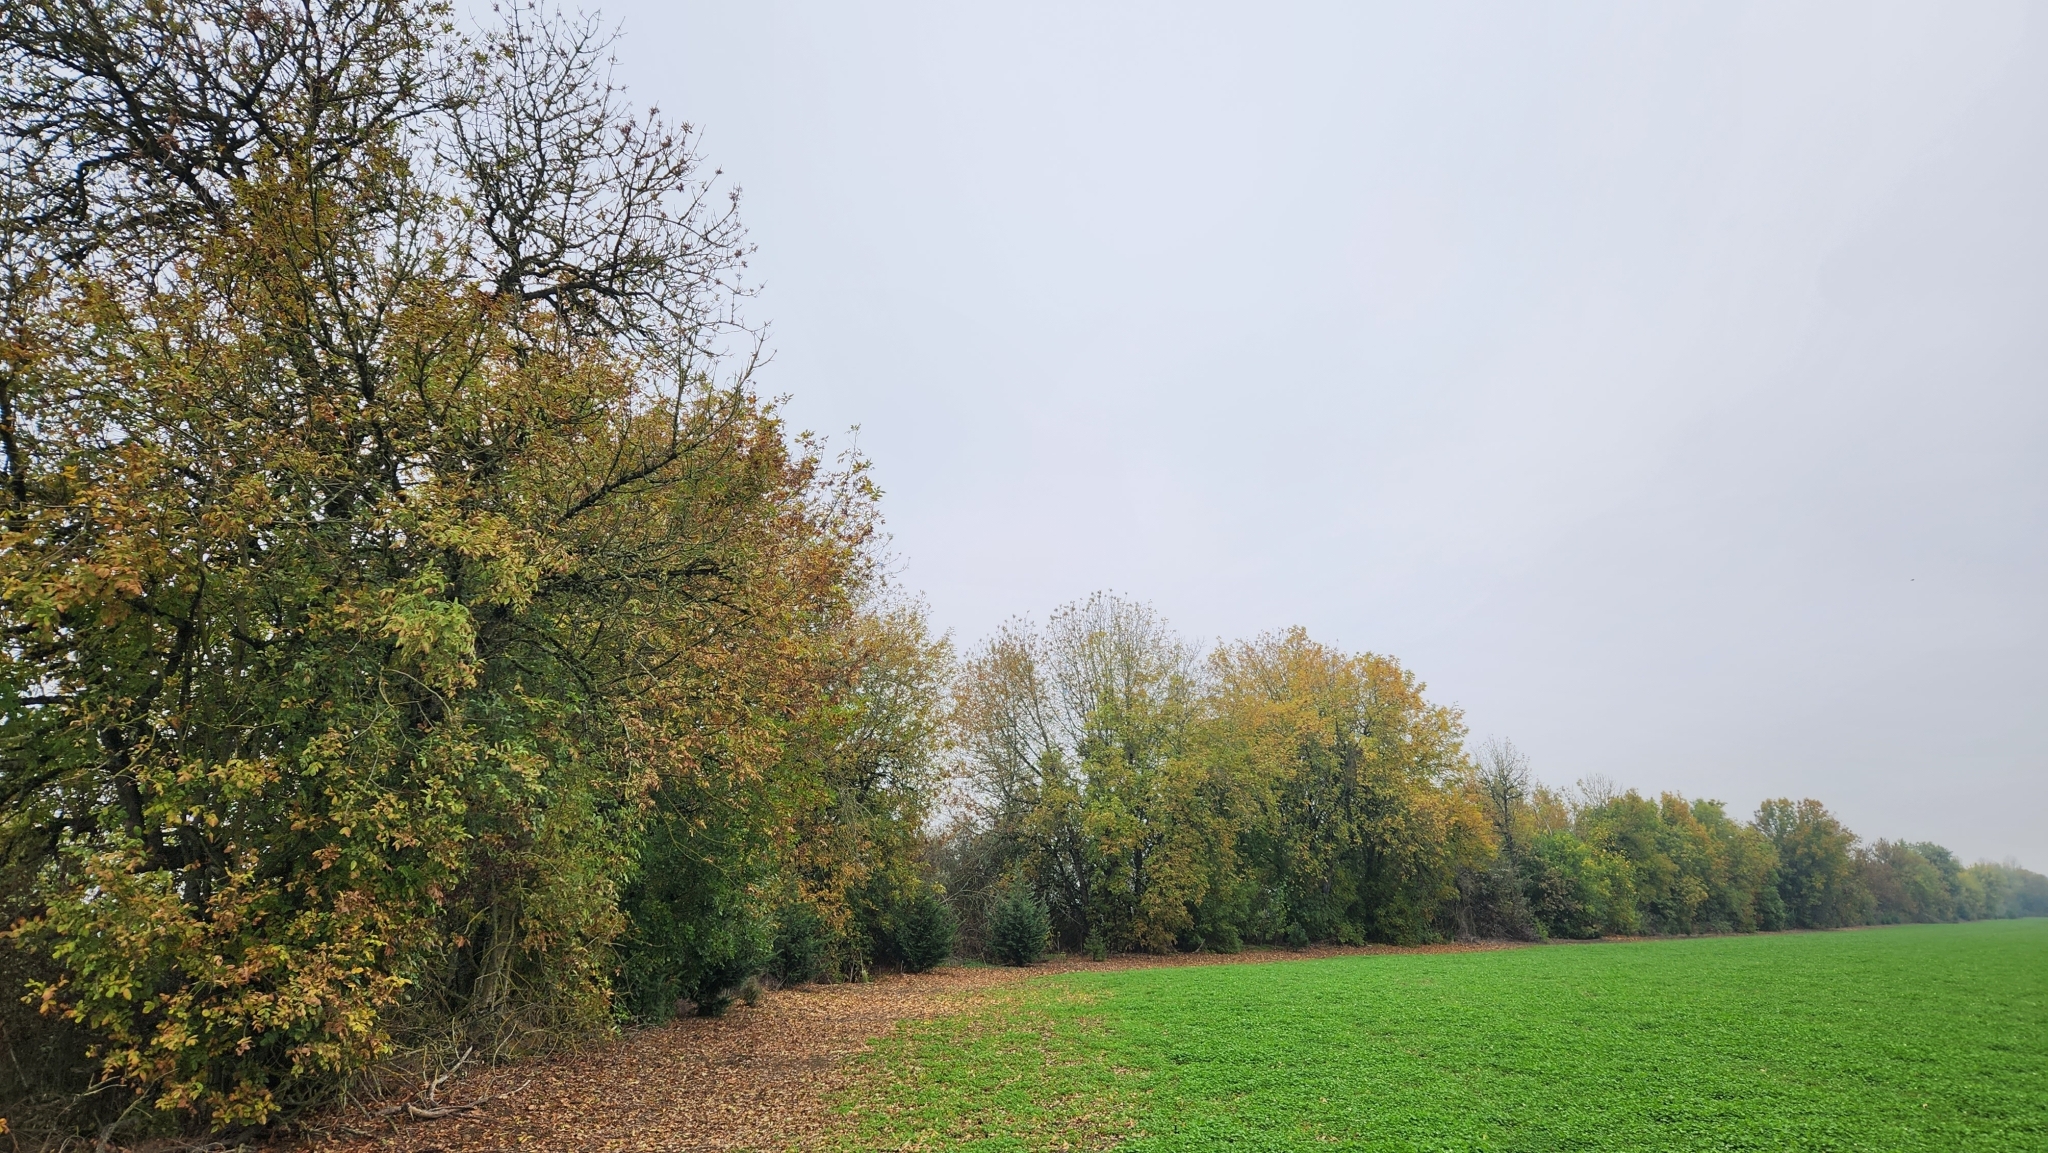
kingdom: Plantae
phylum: Tracheophyta
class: Magnoliopsida
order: Lamiales
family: Oleaceae
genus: Fraxinus
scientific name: Fraxinus latifolia
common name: Oregon ash
